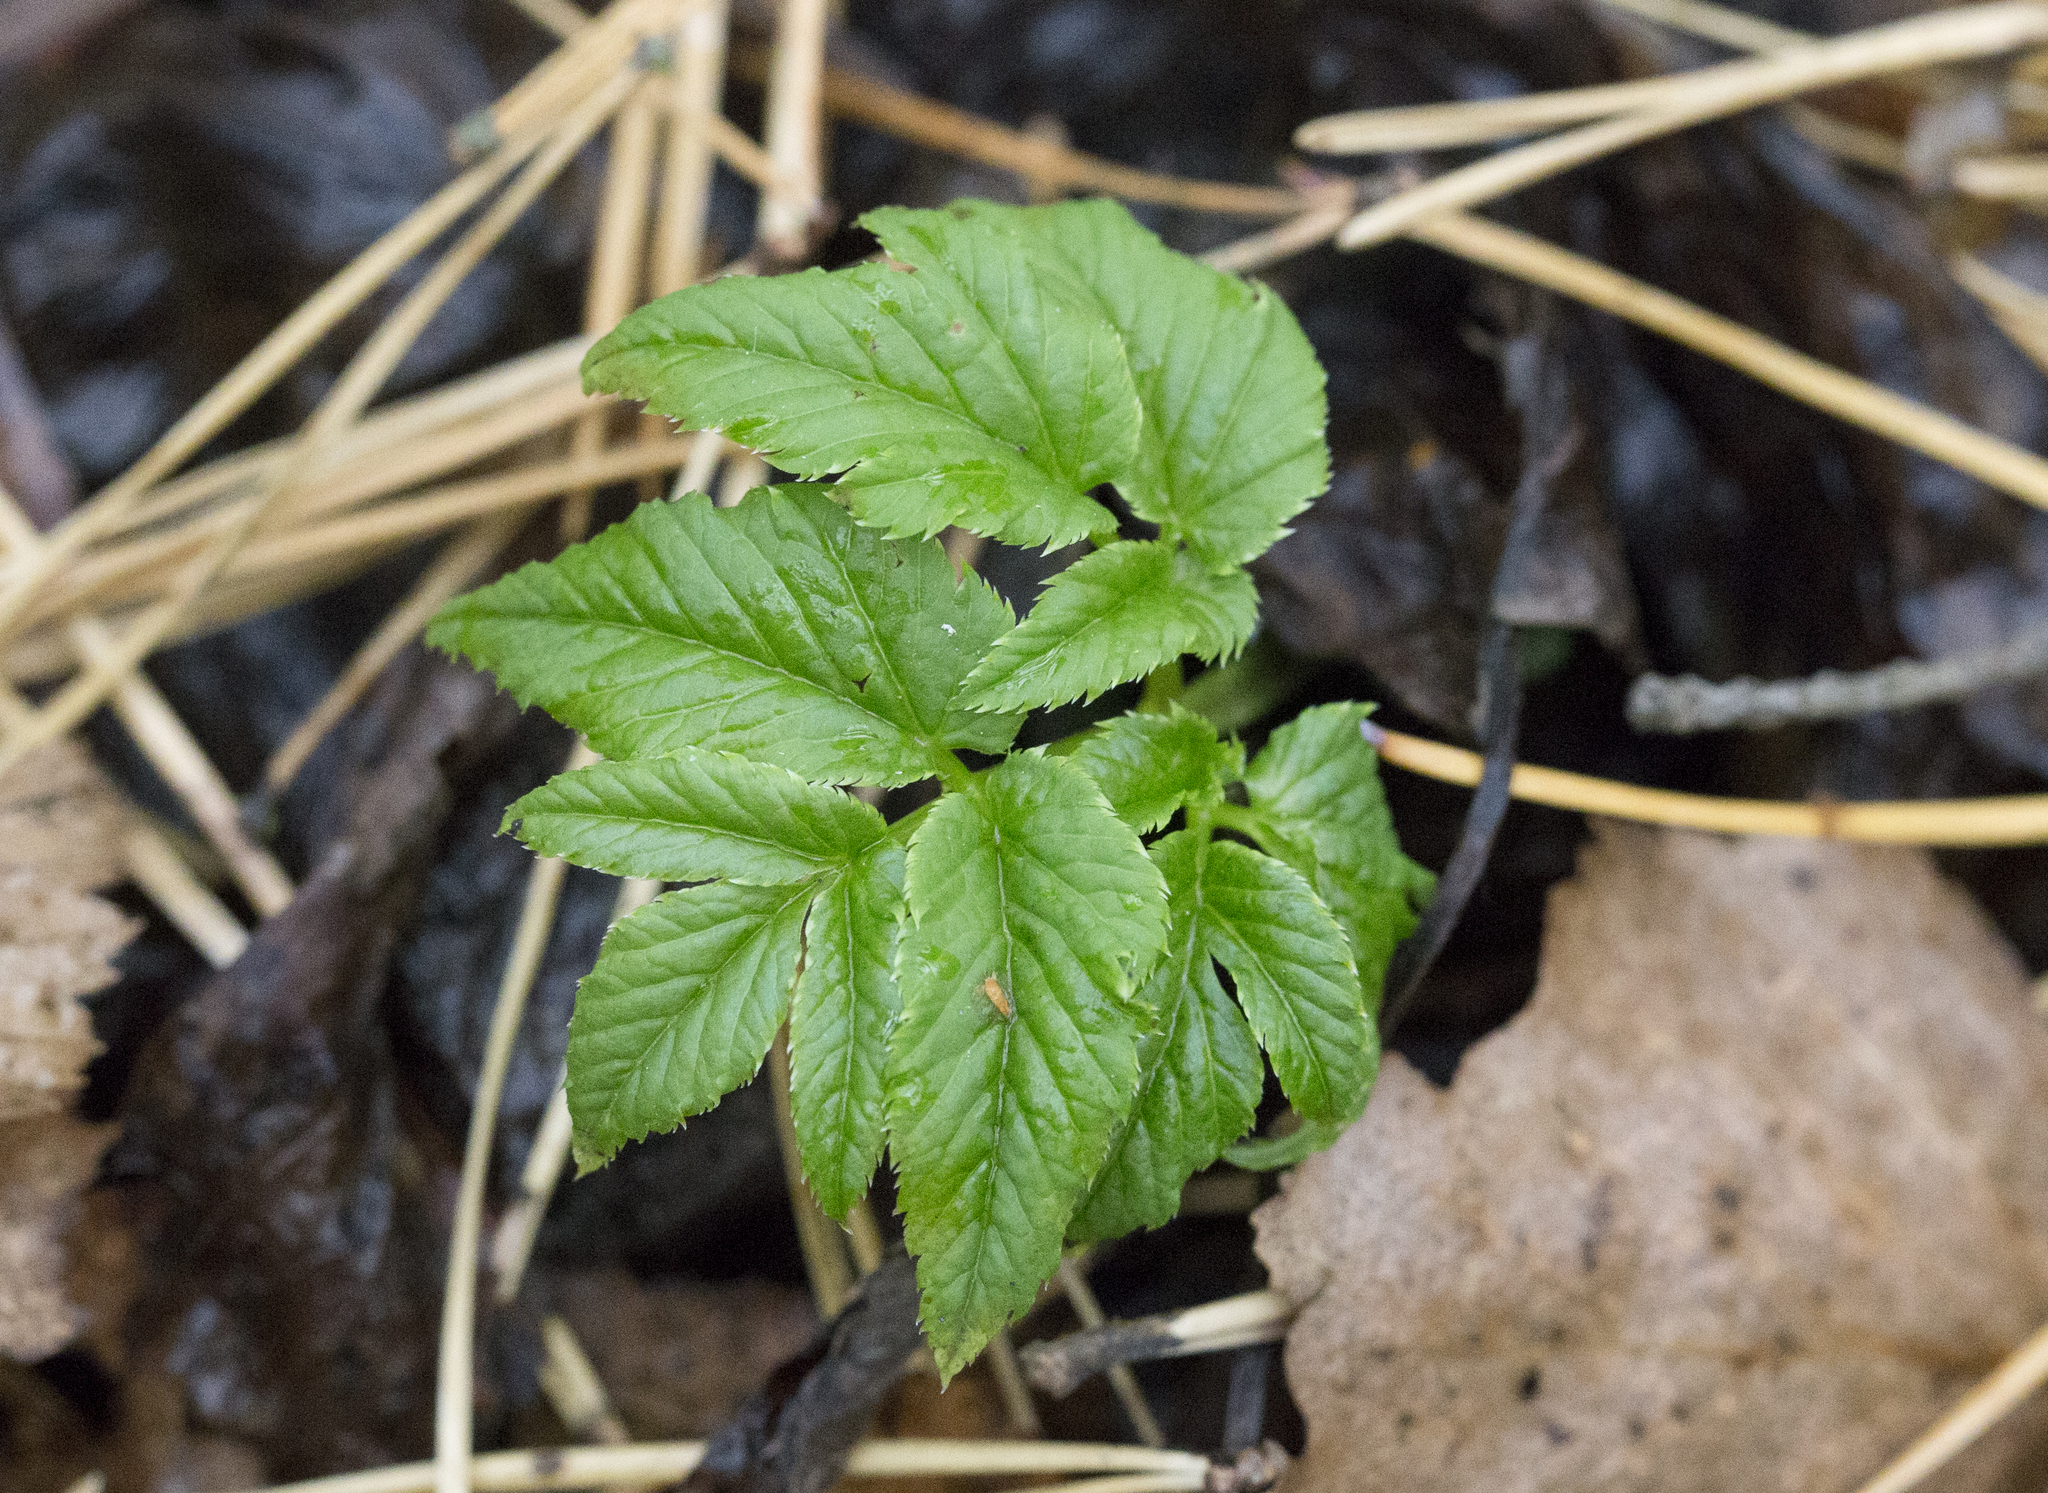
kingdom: Plantae
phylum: Tracheophyta
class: Magnoliopsida
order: Apiales
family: Apiaceae
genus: Aegopodium
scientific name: Aegopodium podagraria
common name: Ground-elder
